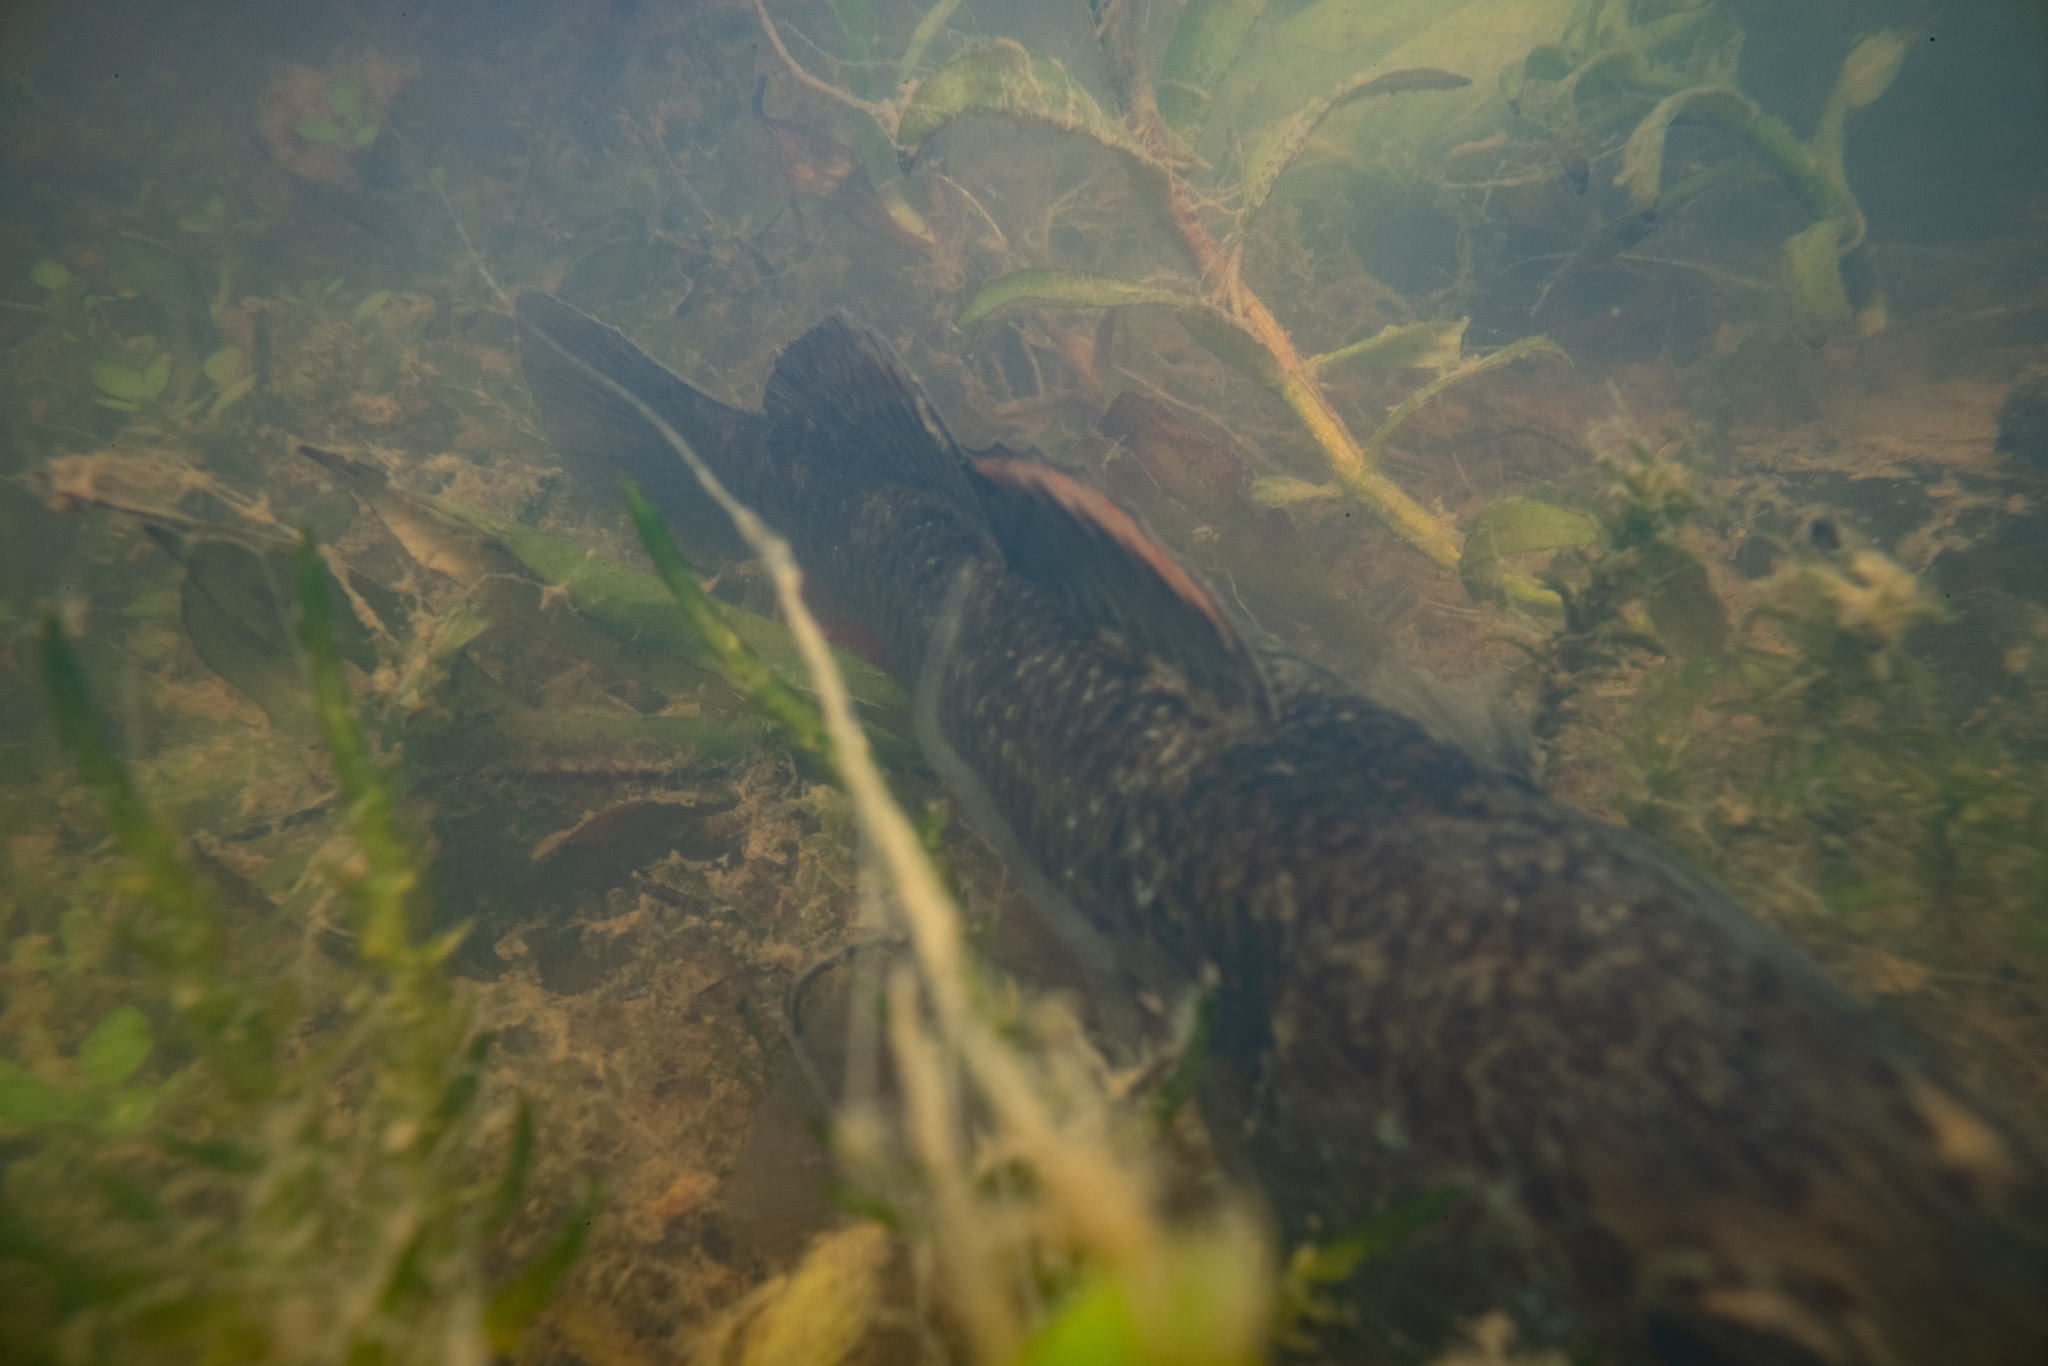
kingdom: Animalia
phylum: Chordata
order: Perciformes
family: Eleotridae
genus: Gobiomorphus
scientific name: Gobiomorphus basalis
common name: Tarndale bully
